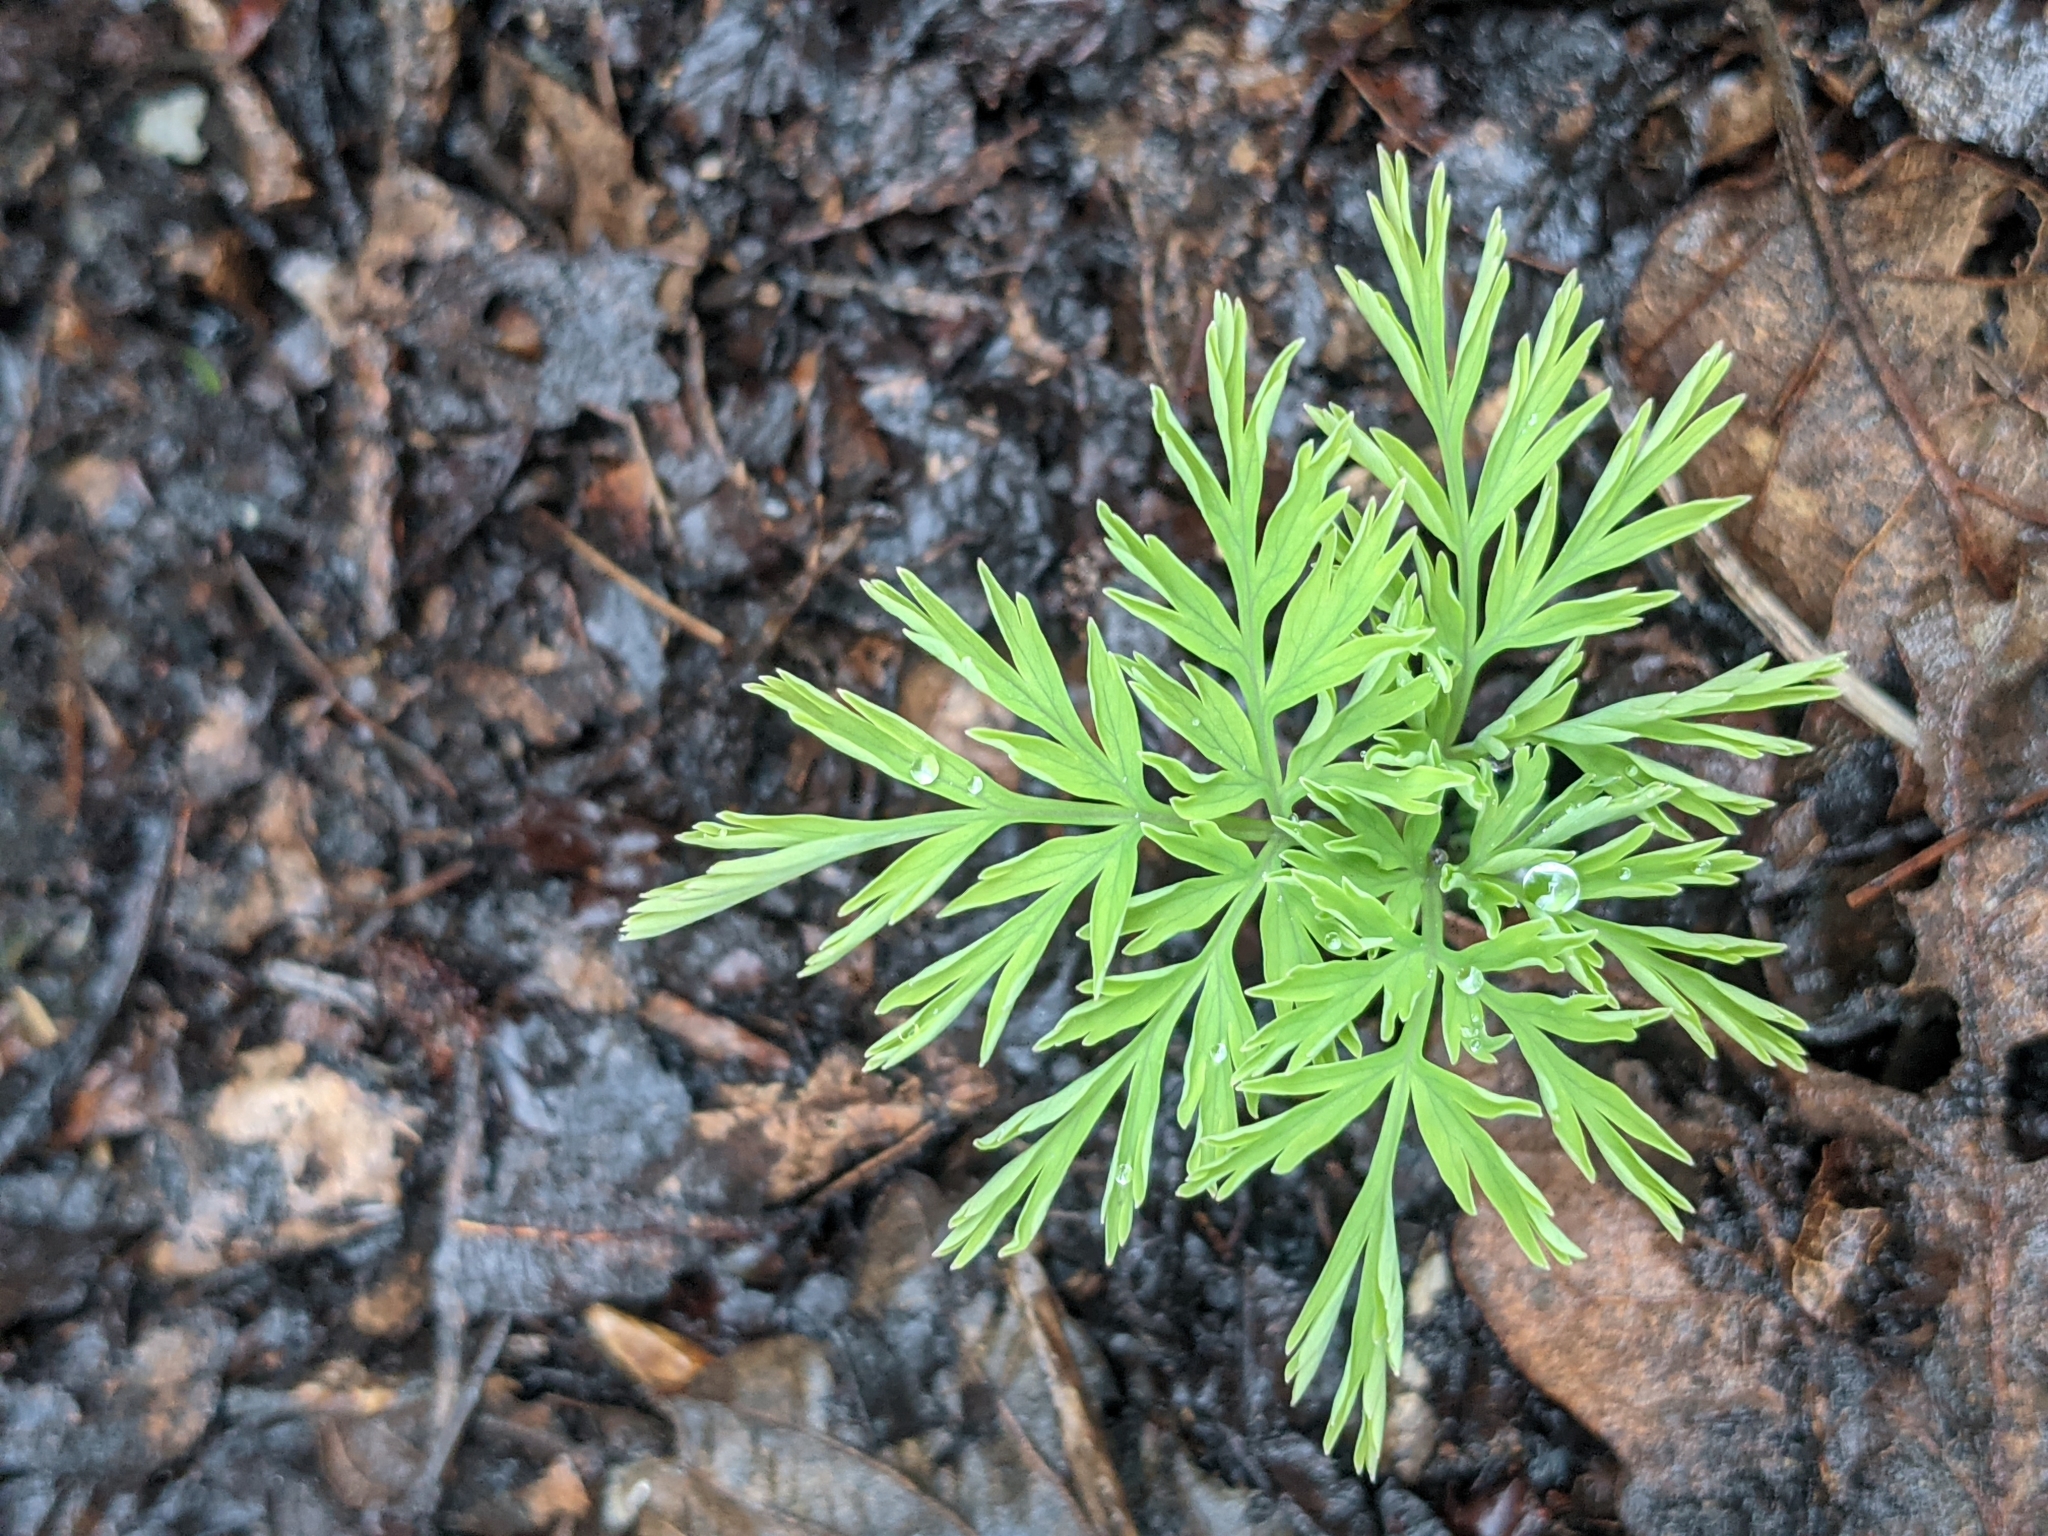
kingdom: Plantae
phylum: Tracheophyta
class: Magnoliopsida
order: Ranunculales
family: Papaveraceae
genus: Dicentra
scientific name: Dicentra formosa
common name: Bleeding-heart
